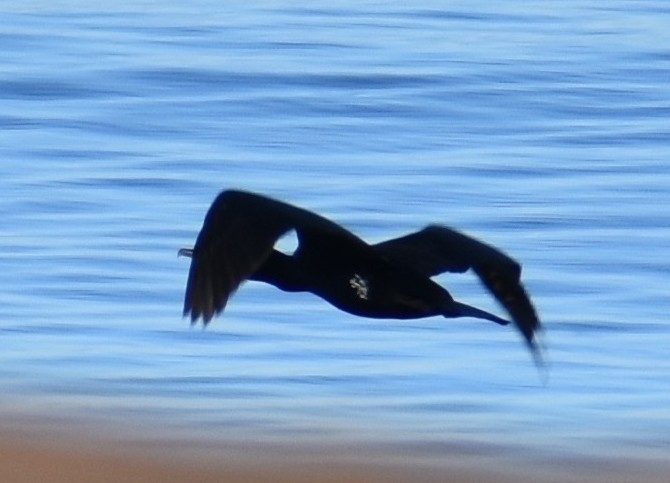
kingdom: Animalia
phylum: Chordata
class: Aves
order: Suliformes
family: Phalacrocoracidae
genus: Phalacrocorax
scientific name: Phalacrocorax carbo
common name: Great cormorant
